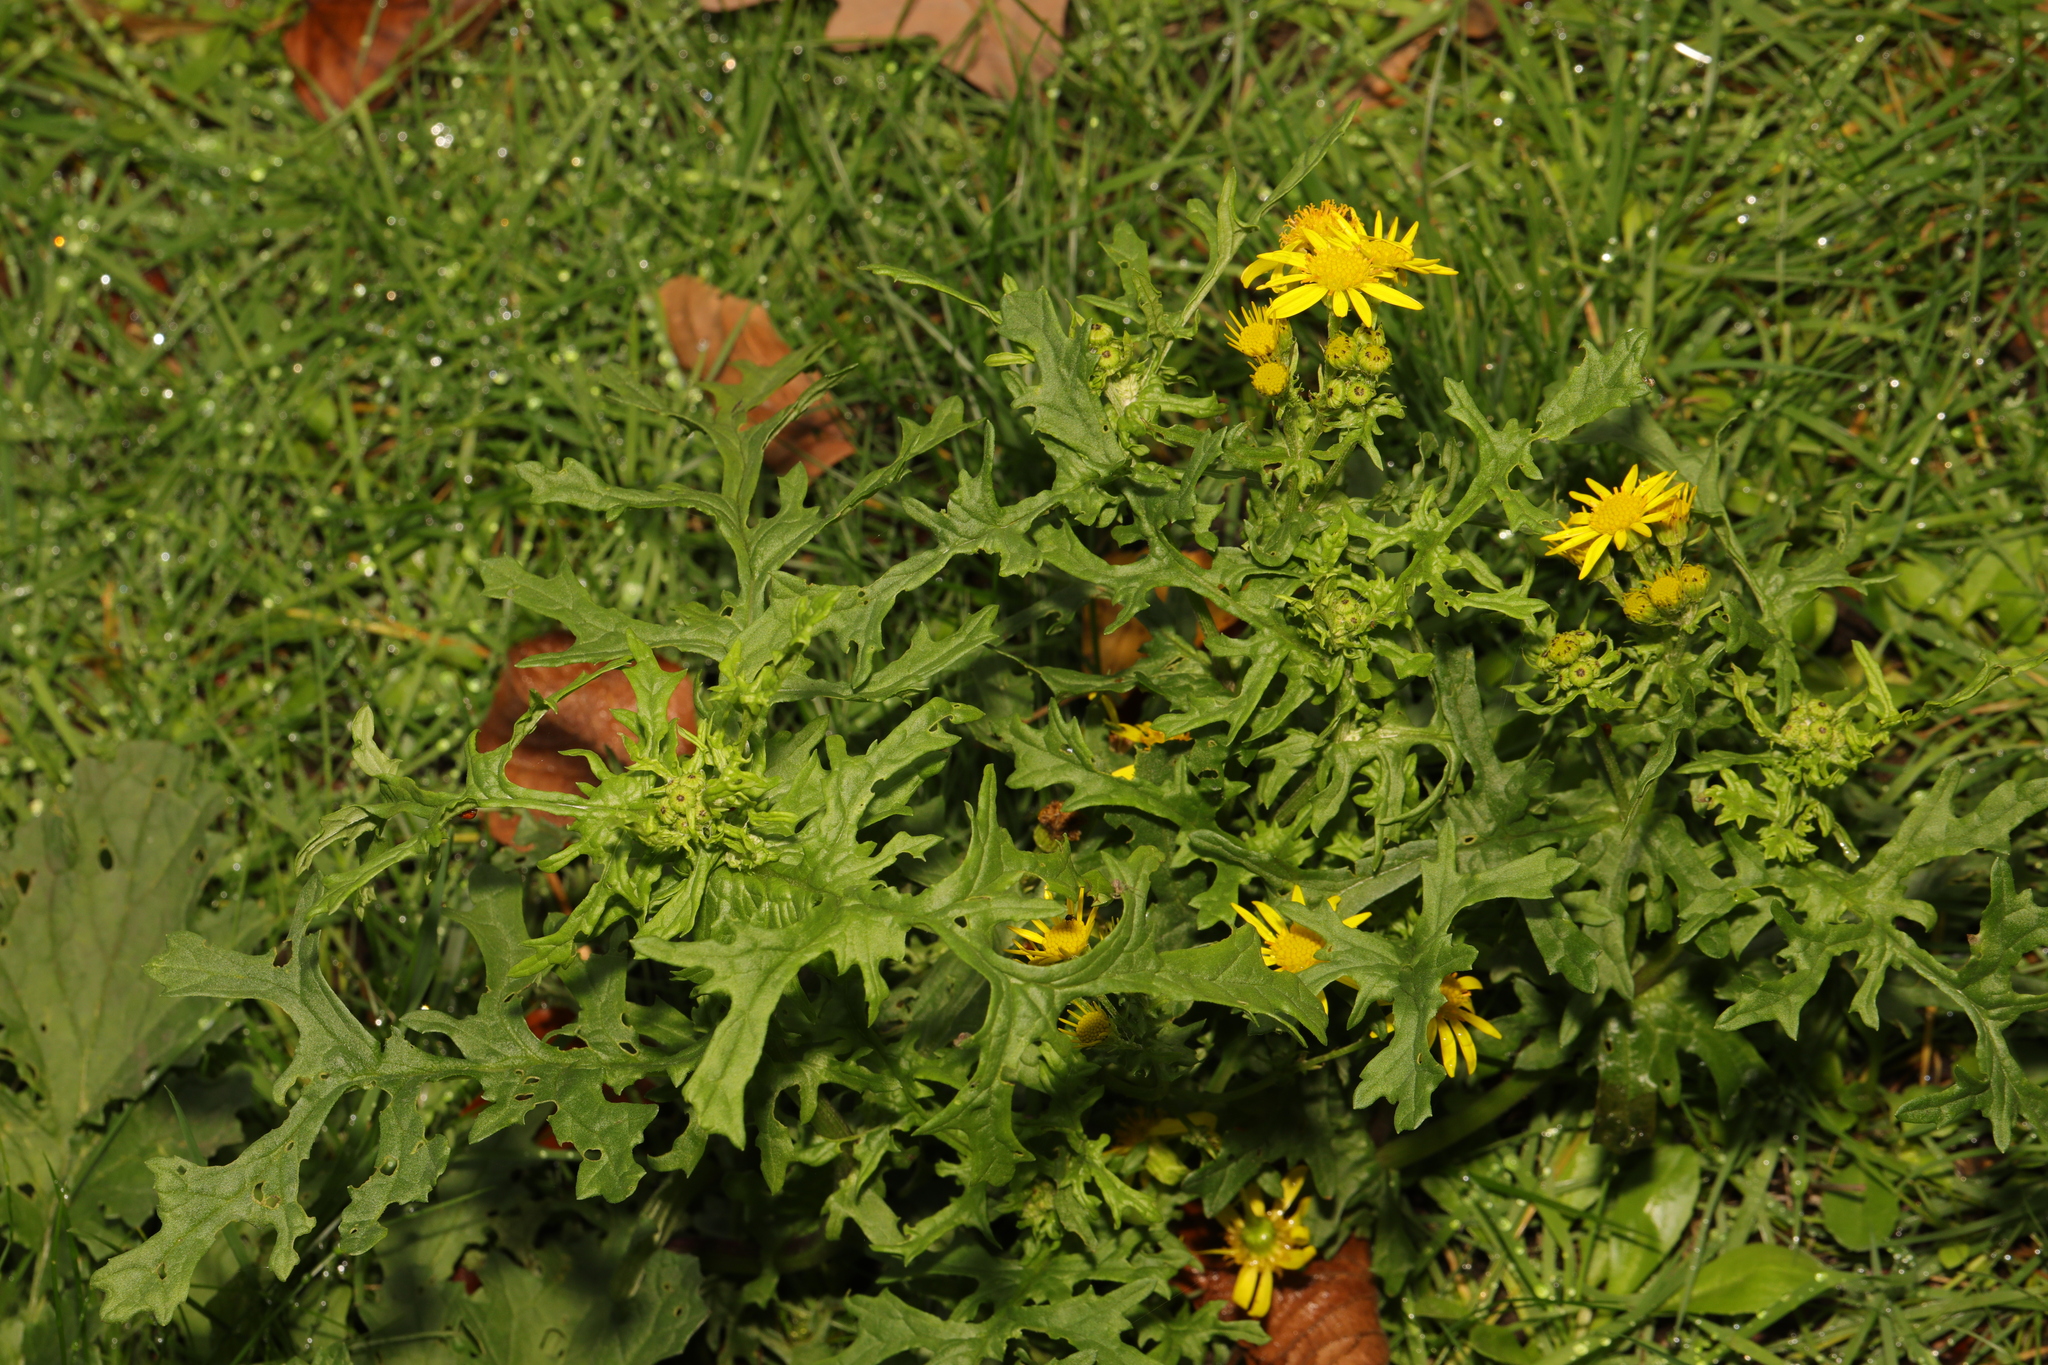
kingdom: Plantae
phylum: Tracheophyta
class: Magnoliopsida
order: Asterales
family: Asteraceae
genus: Jacobaea
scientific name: Jacobaea vulgaris
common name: Stinking willie
